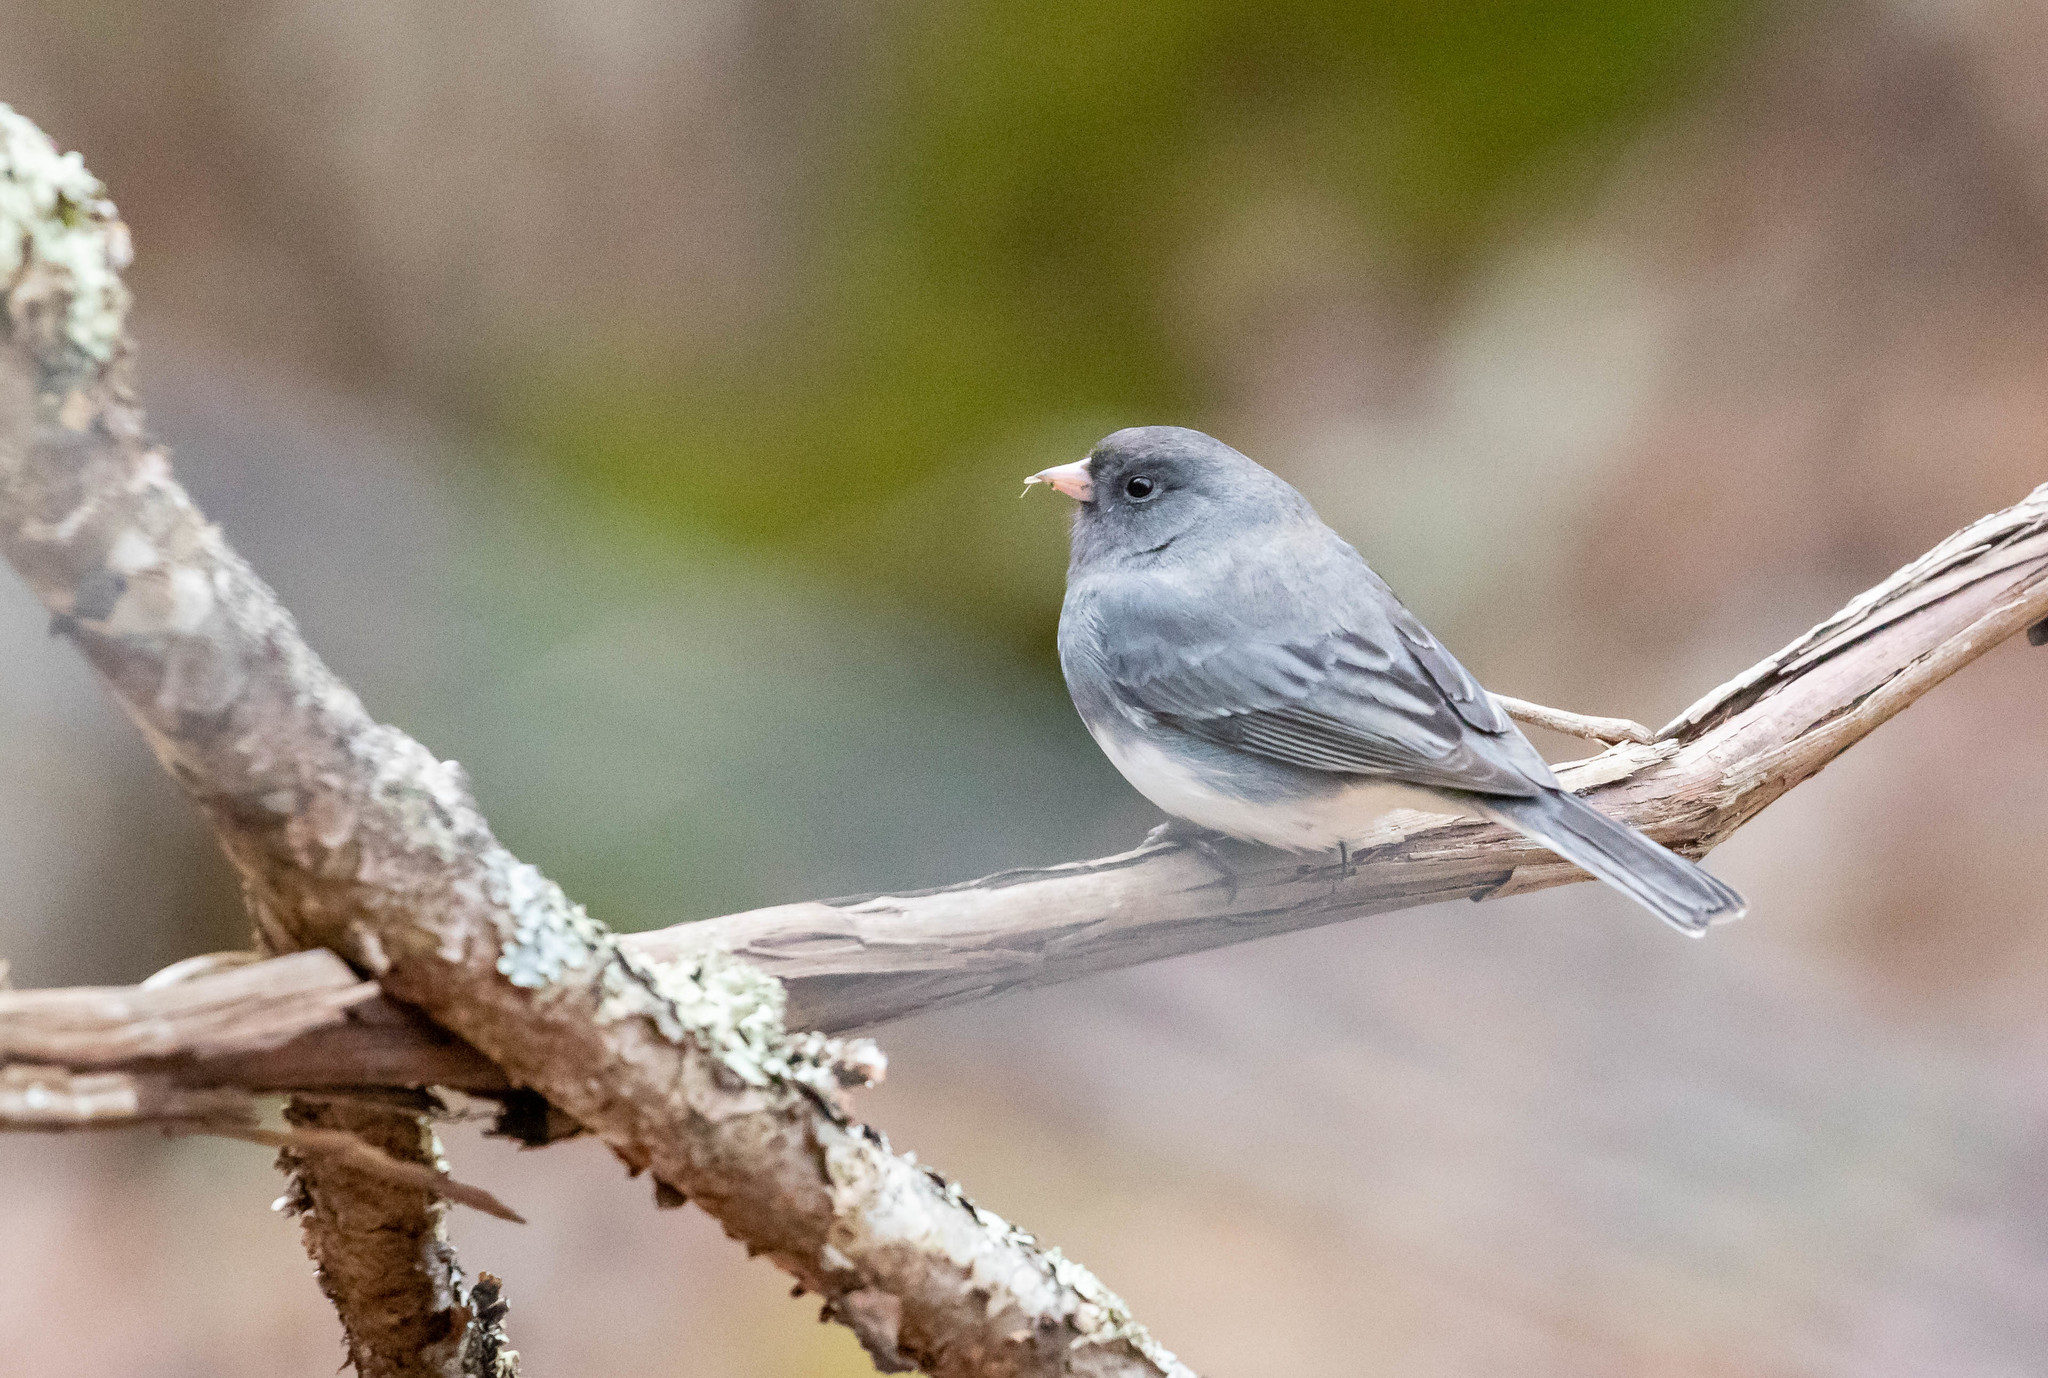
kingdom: Animalia
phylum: Chordata
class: Aves
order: Passeriformes
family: Passerellidae
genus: Junco
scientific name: Junco hyemalis
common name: Dark-eyed junco
